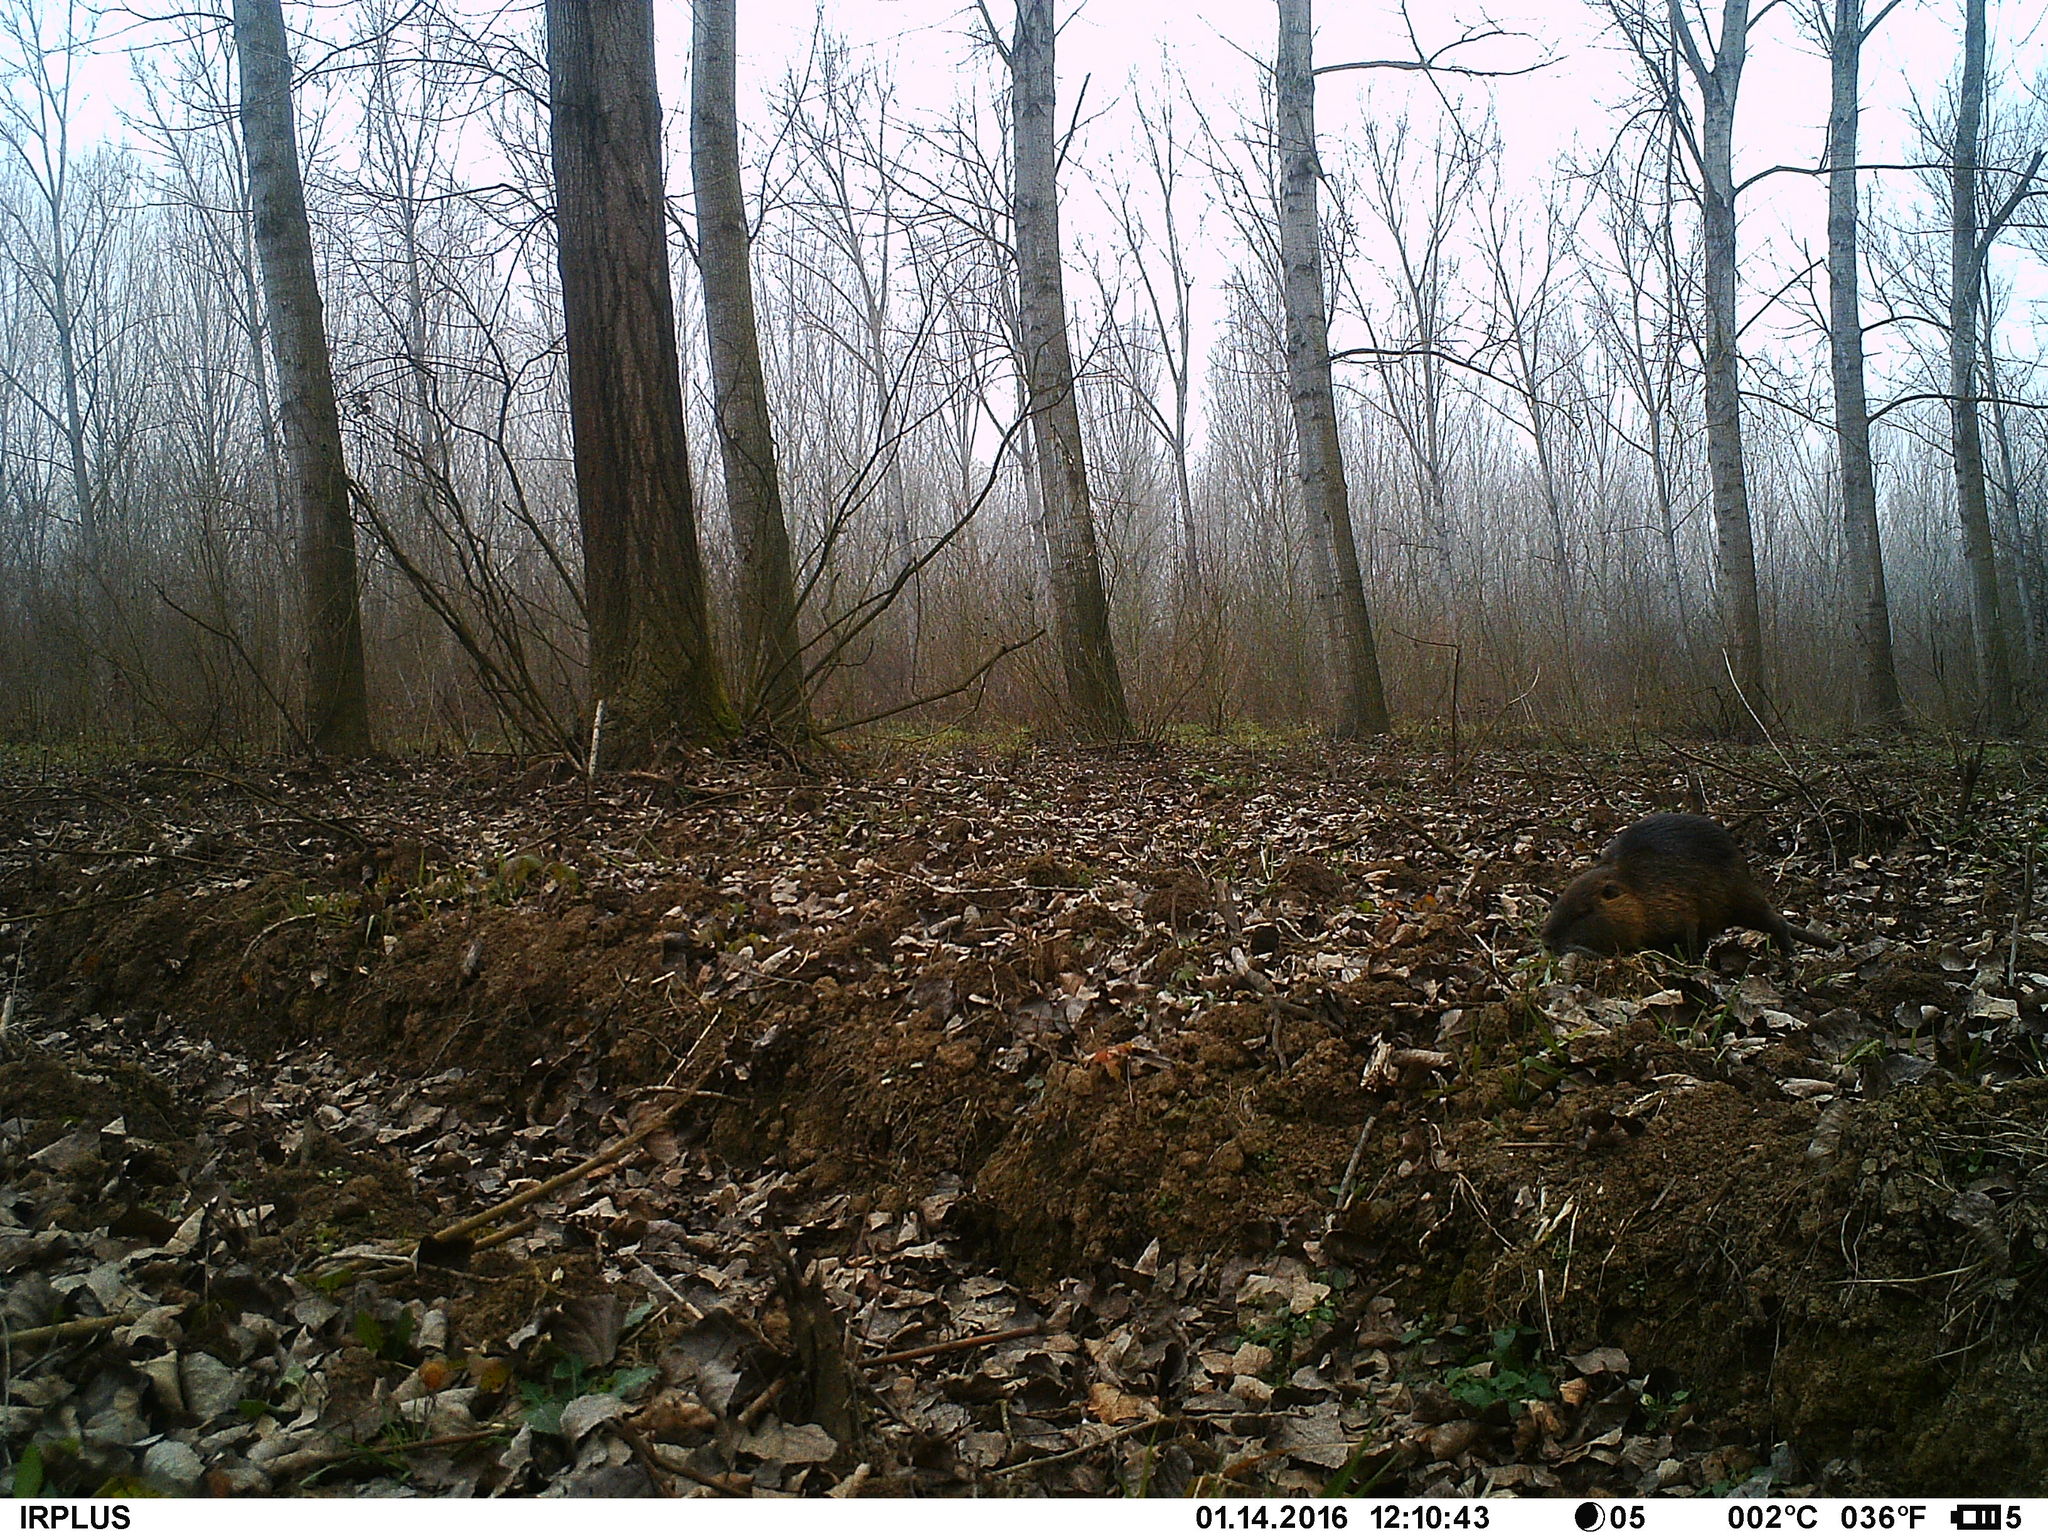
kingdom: Animalia
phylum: Chordata
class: Mammalia
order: Rodentia
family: Myocastoridae
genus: Myocastor
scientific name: Myocastor coypus
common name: Coypu
